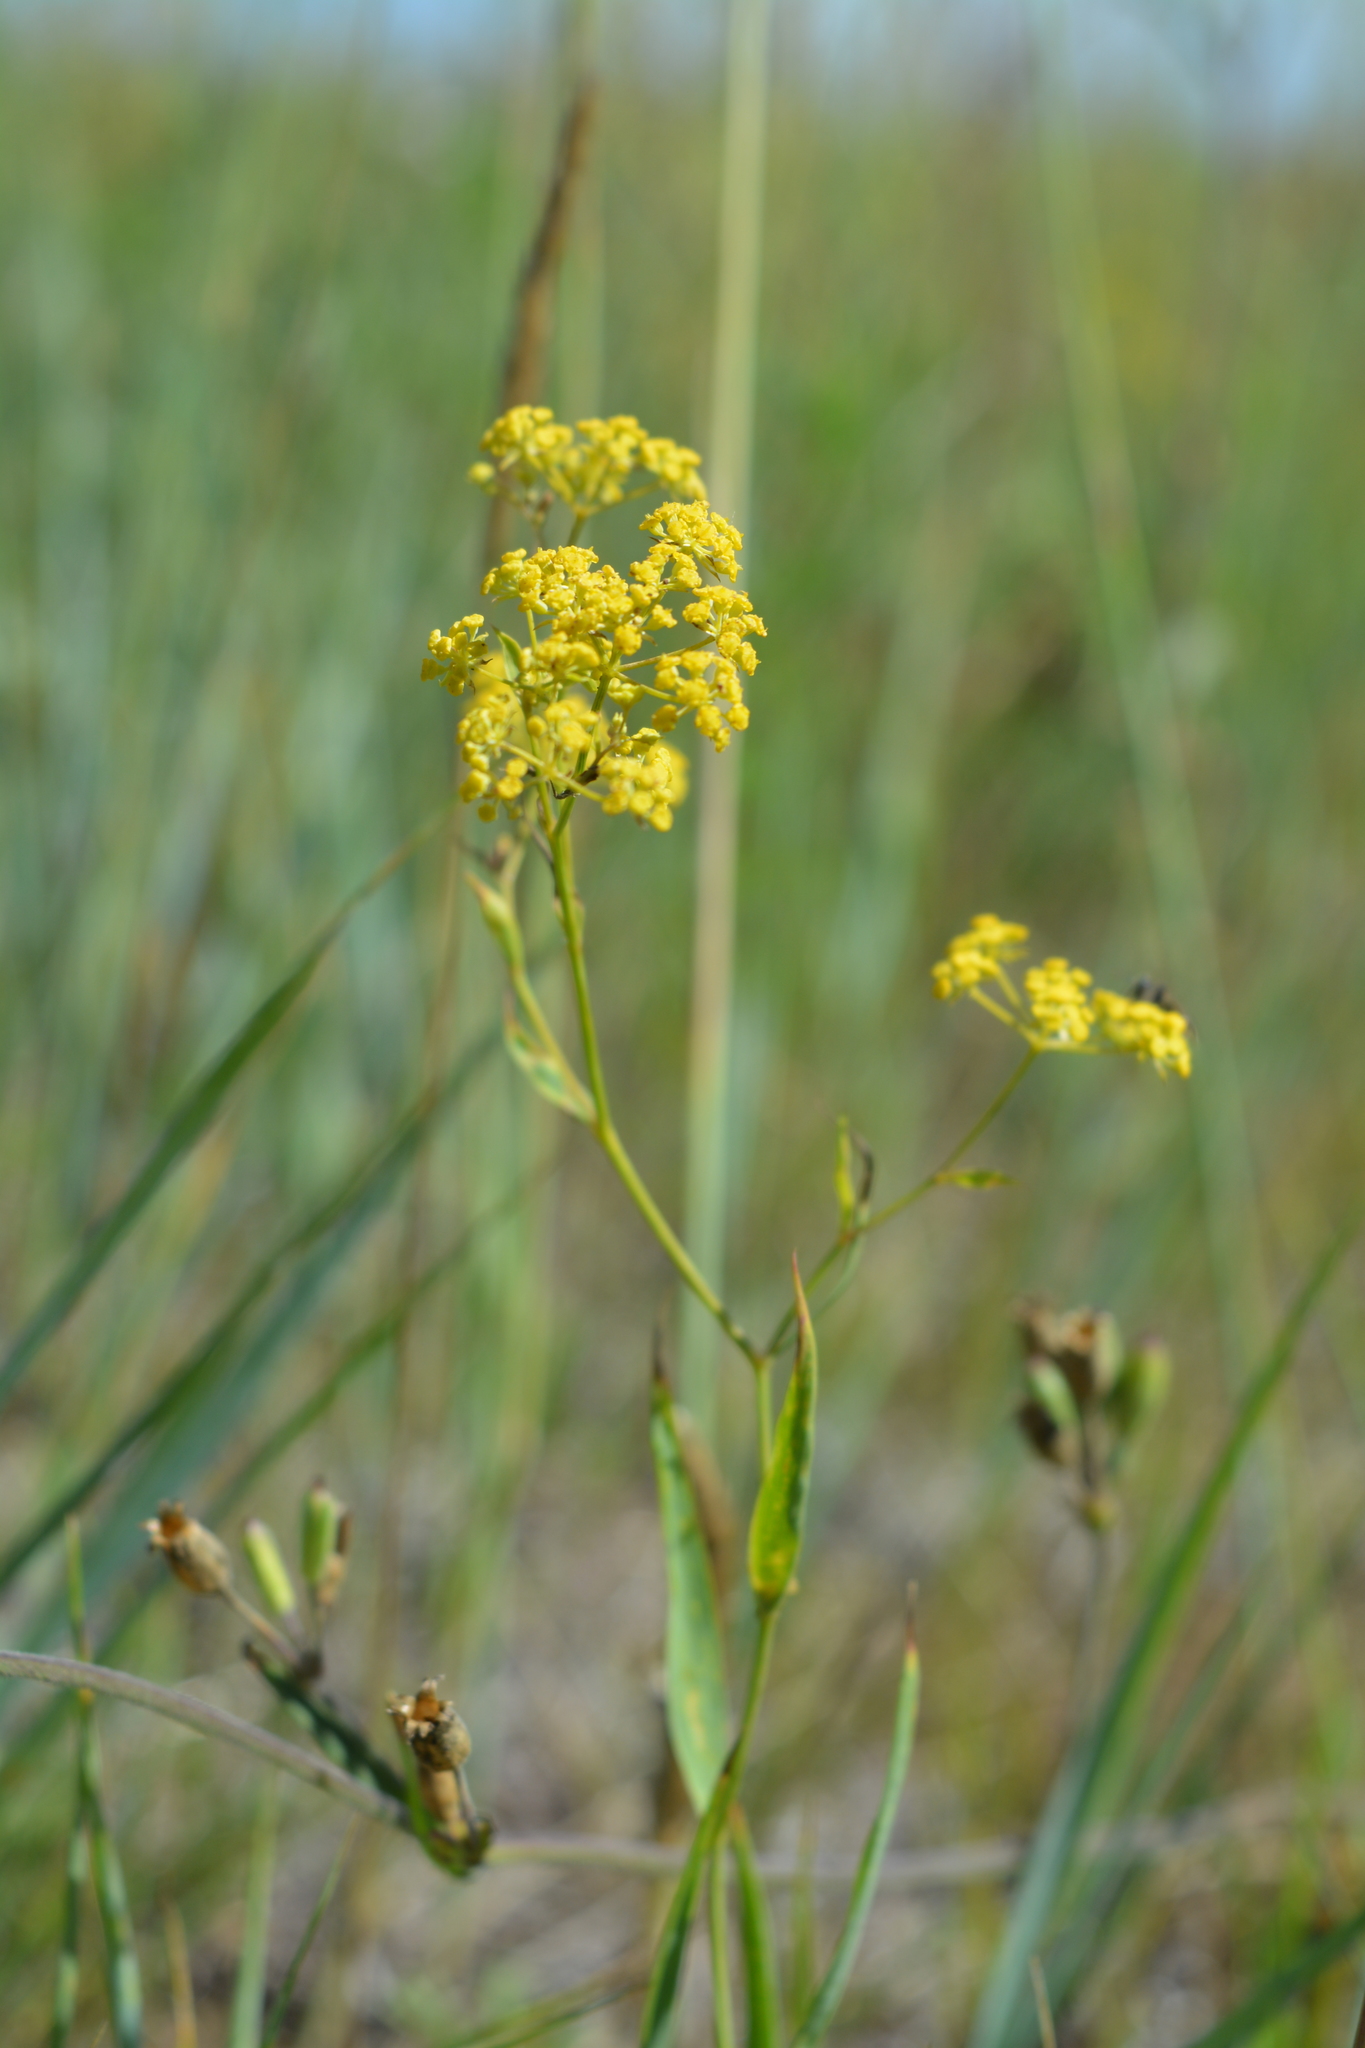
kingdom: Plantae
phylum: Tracheophyta
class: Magnoliopsida
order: Apiales
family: Apiaceae
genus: Bupleurum
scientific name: Bupleurum sibiricum
